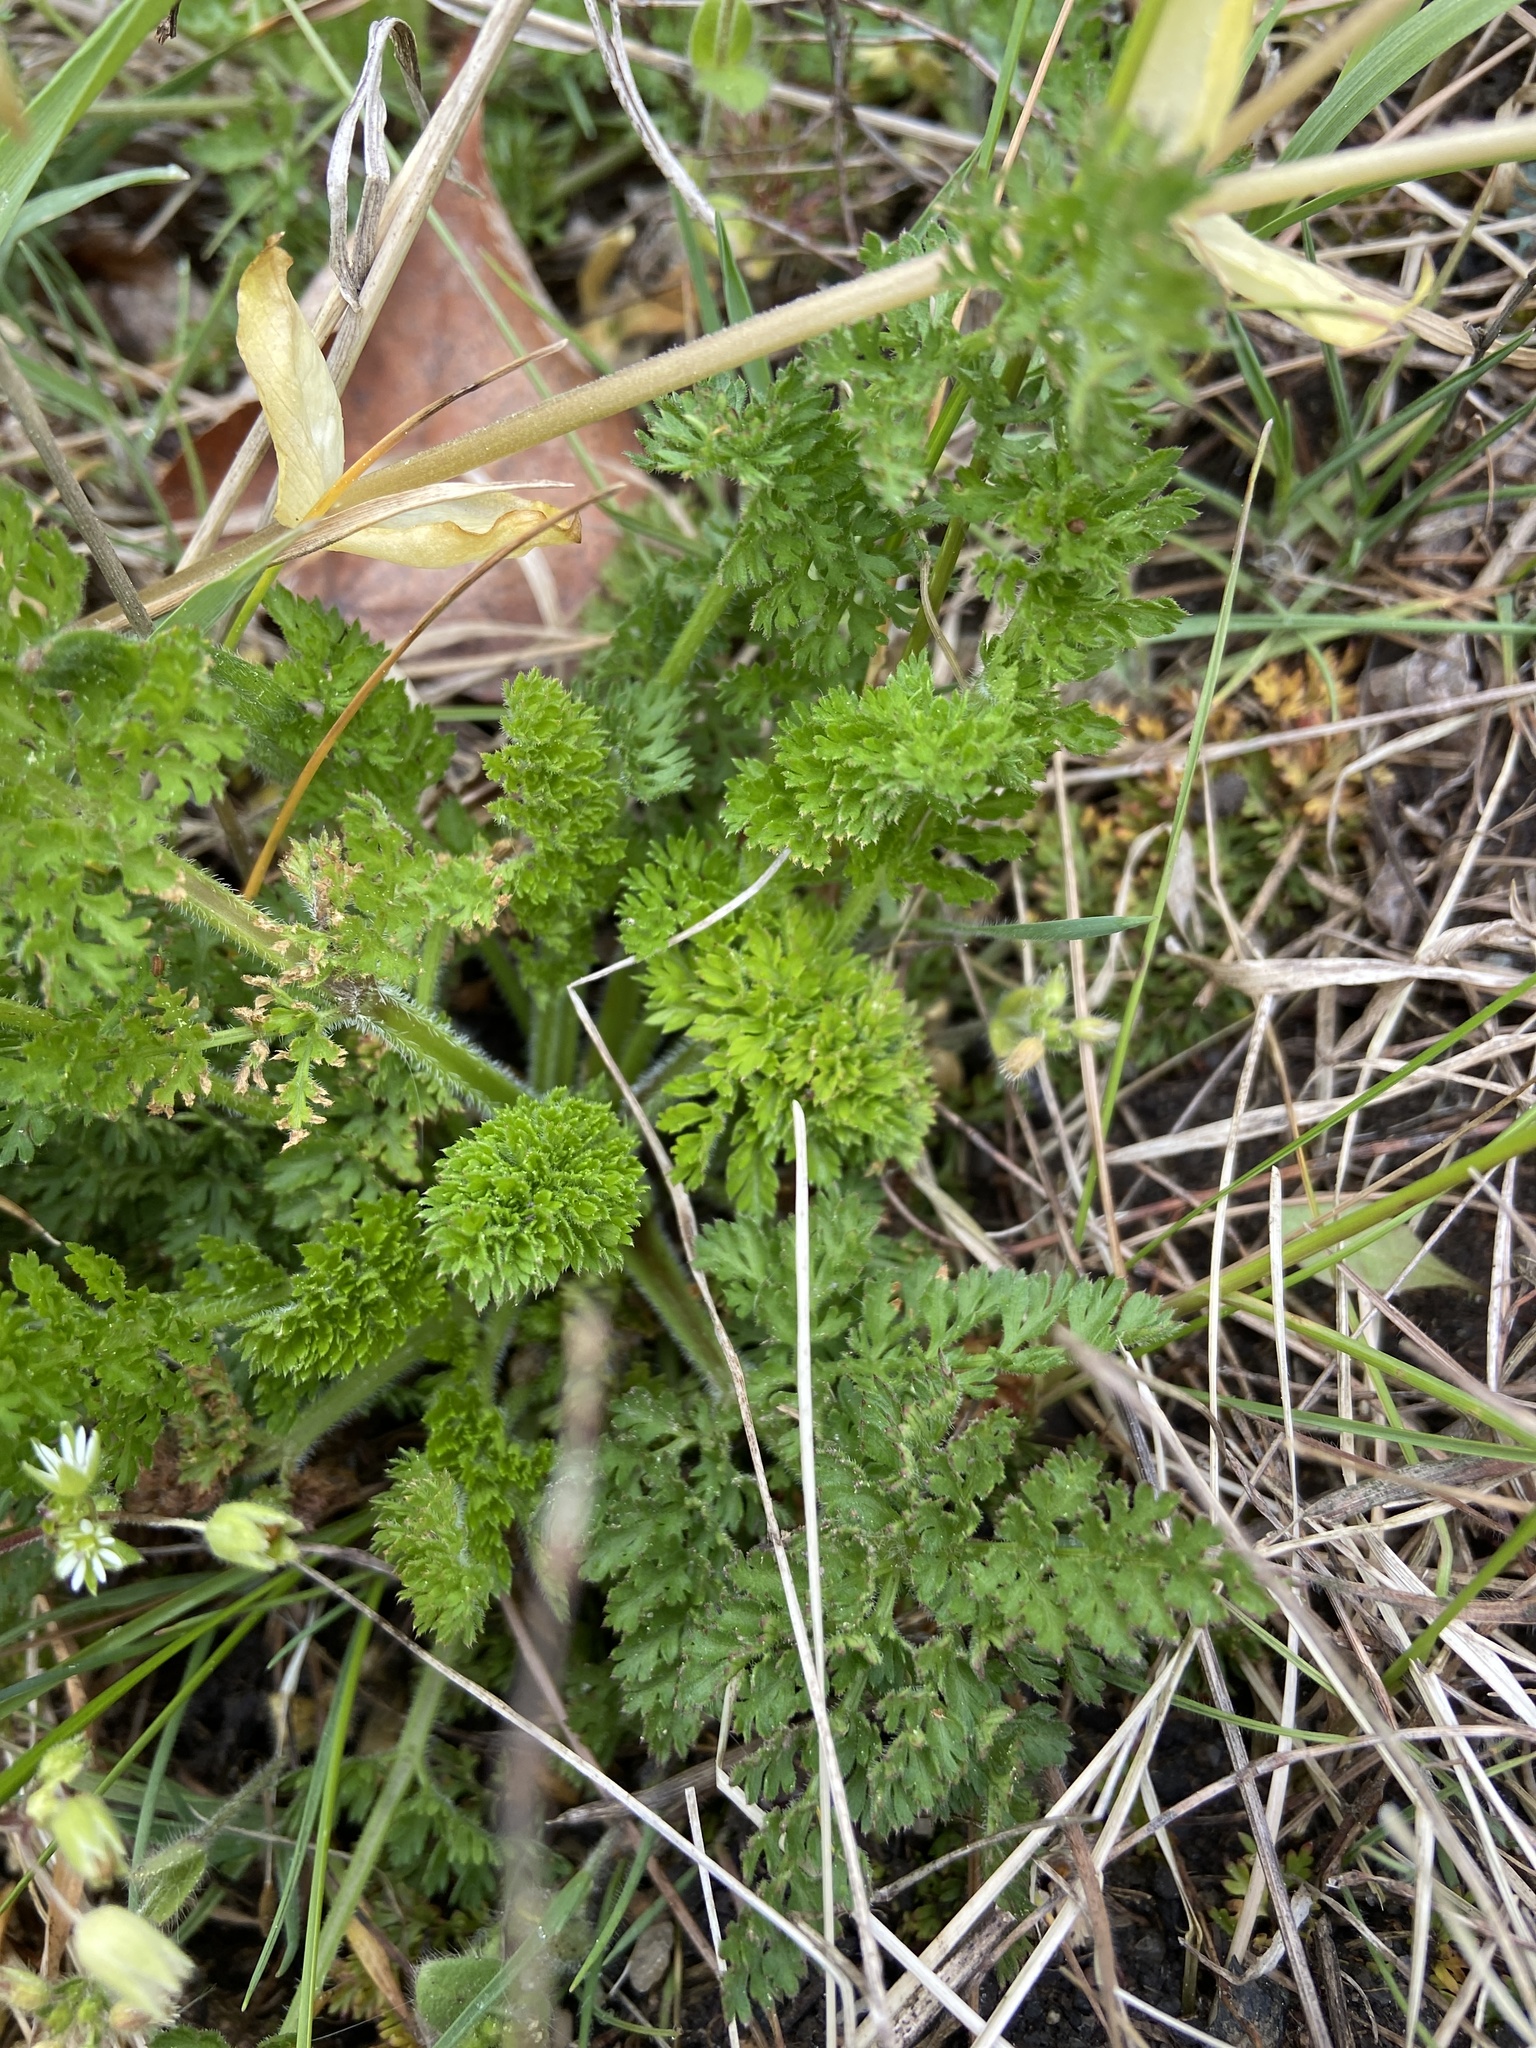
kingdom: Plantae
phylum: Tracheophyta
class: Magnoliopsida
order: Apiales
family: Apiaceae
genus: Daucus
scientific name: Daucus carota
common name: Wild carrot
